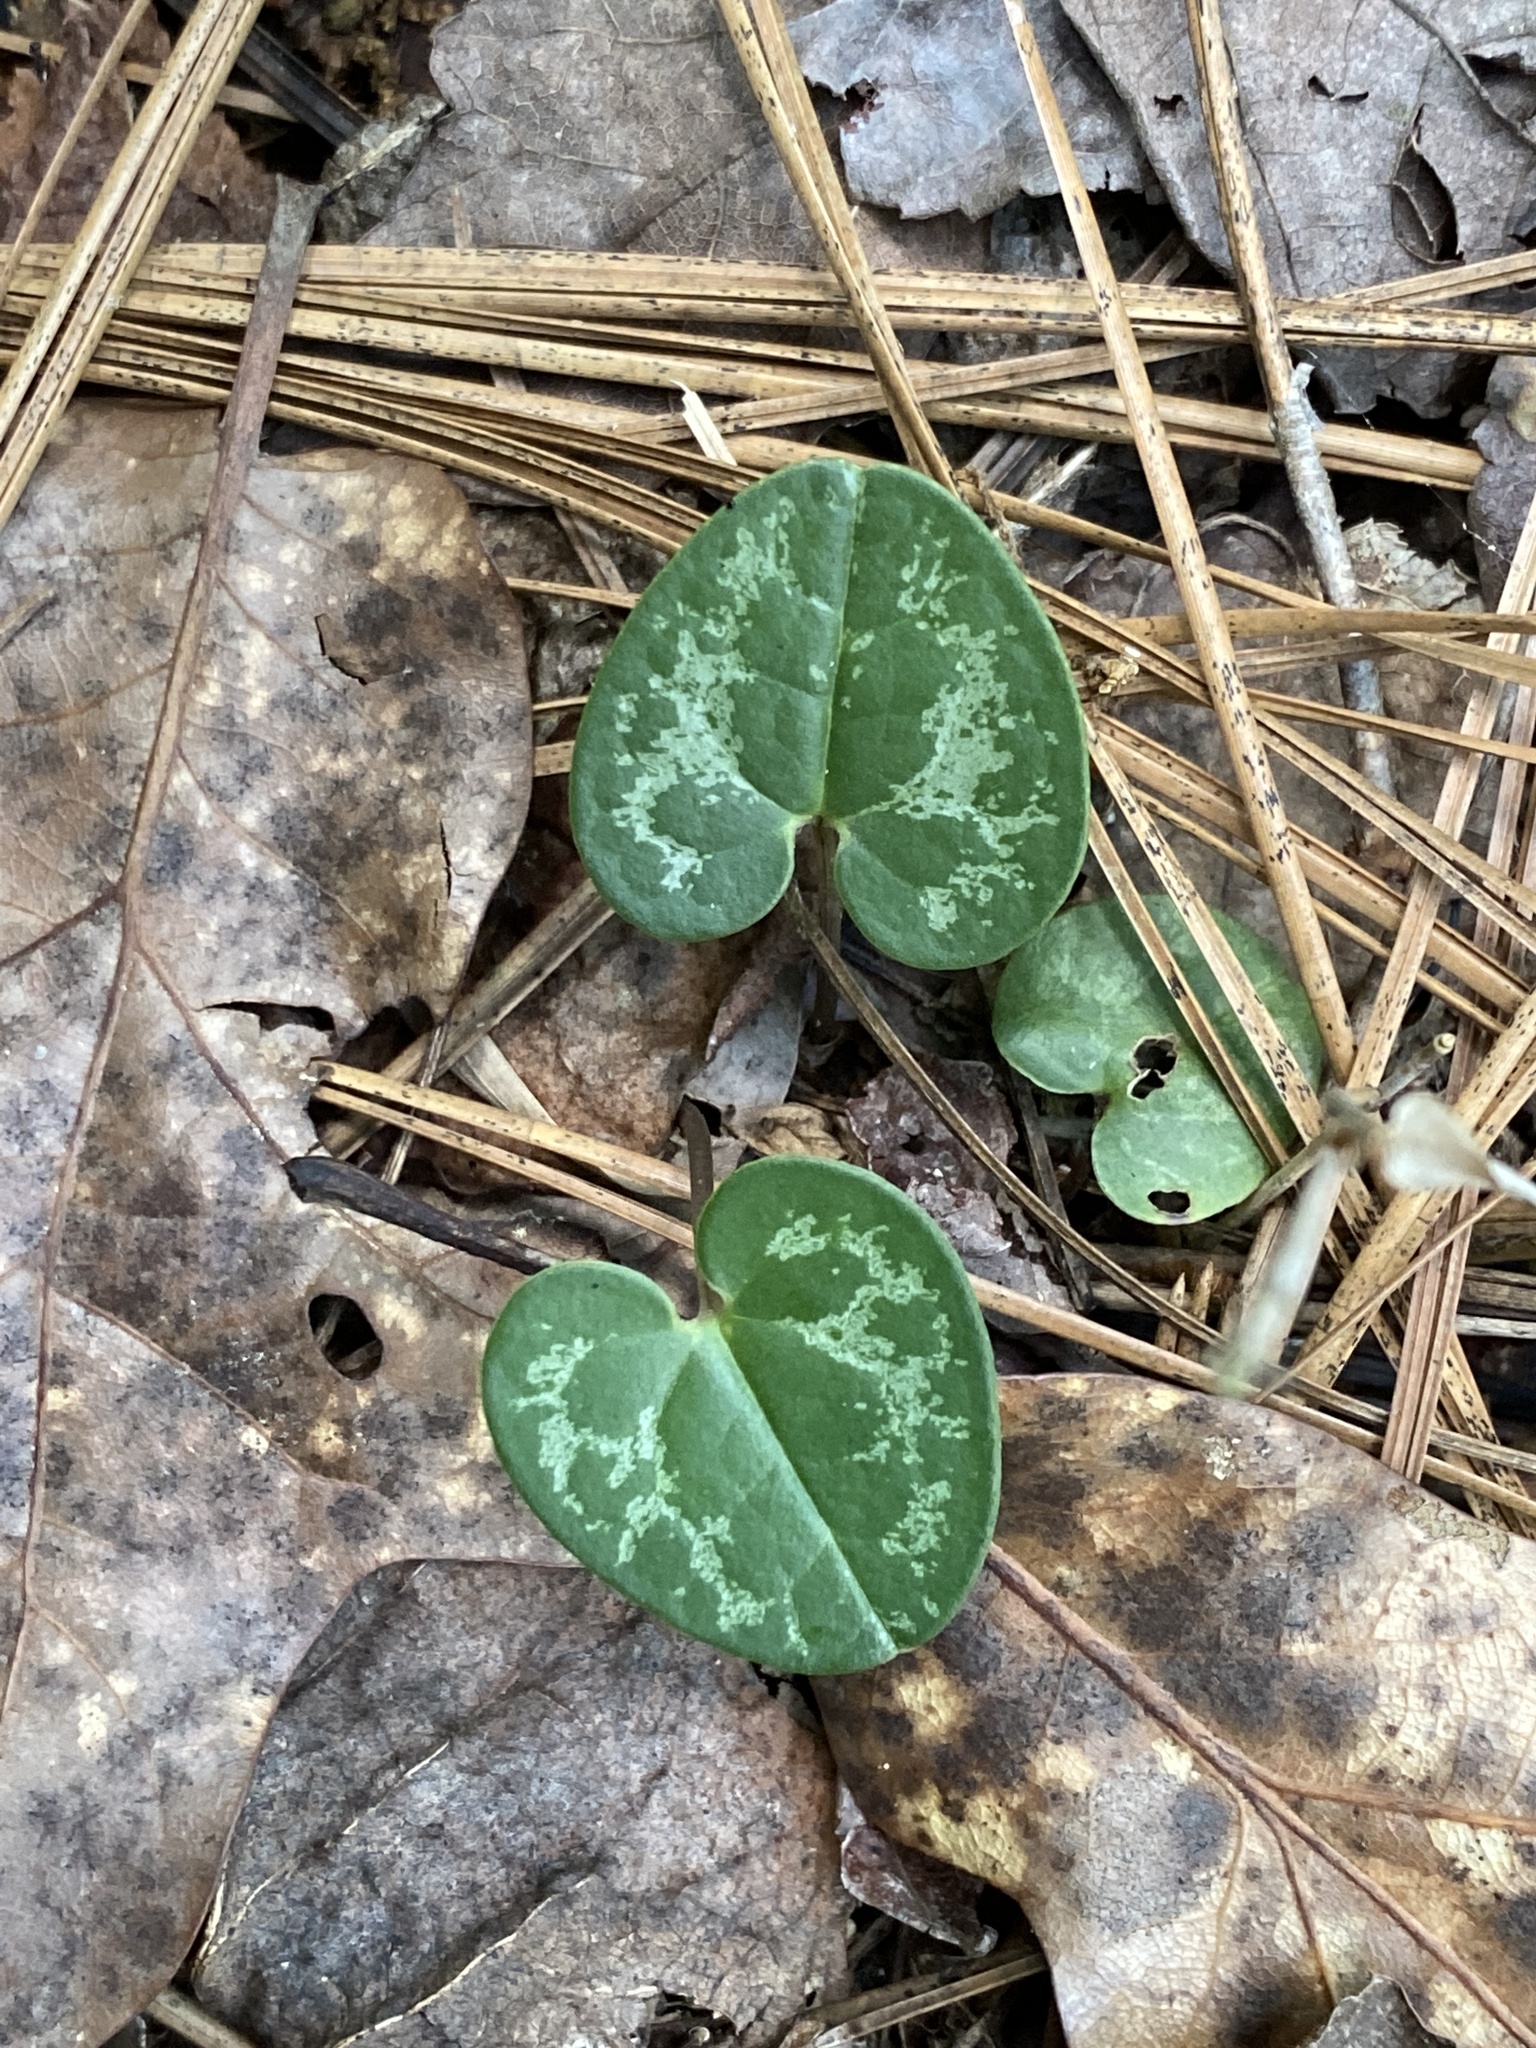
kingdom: Plantae
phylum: Tracheophyta
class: Magnoliopsida
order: Piperales
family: Aristolochiaceae
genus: Hexastylis
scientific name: Hexastylis sorriei
